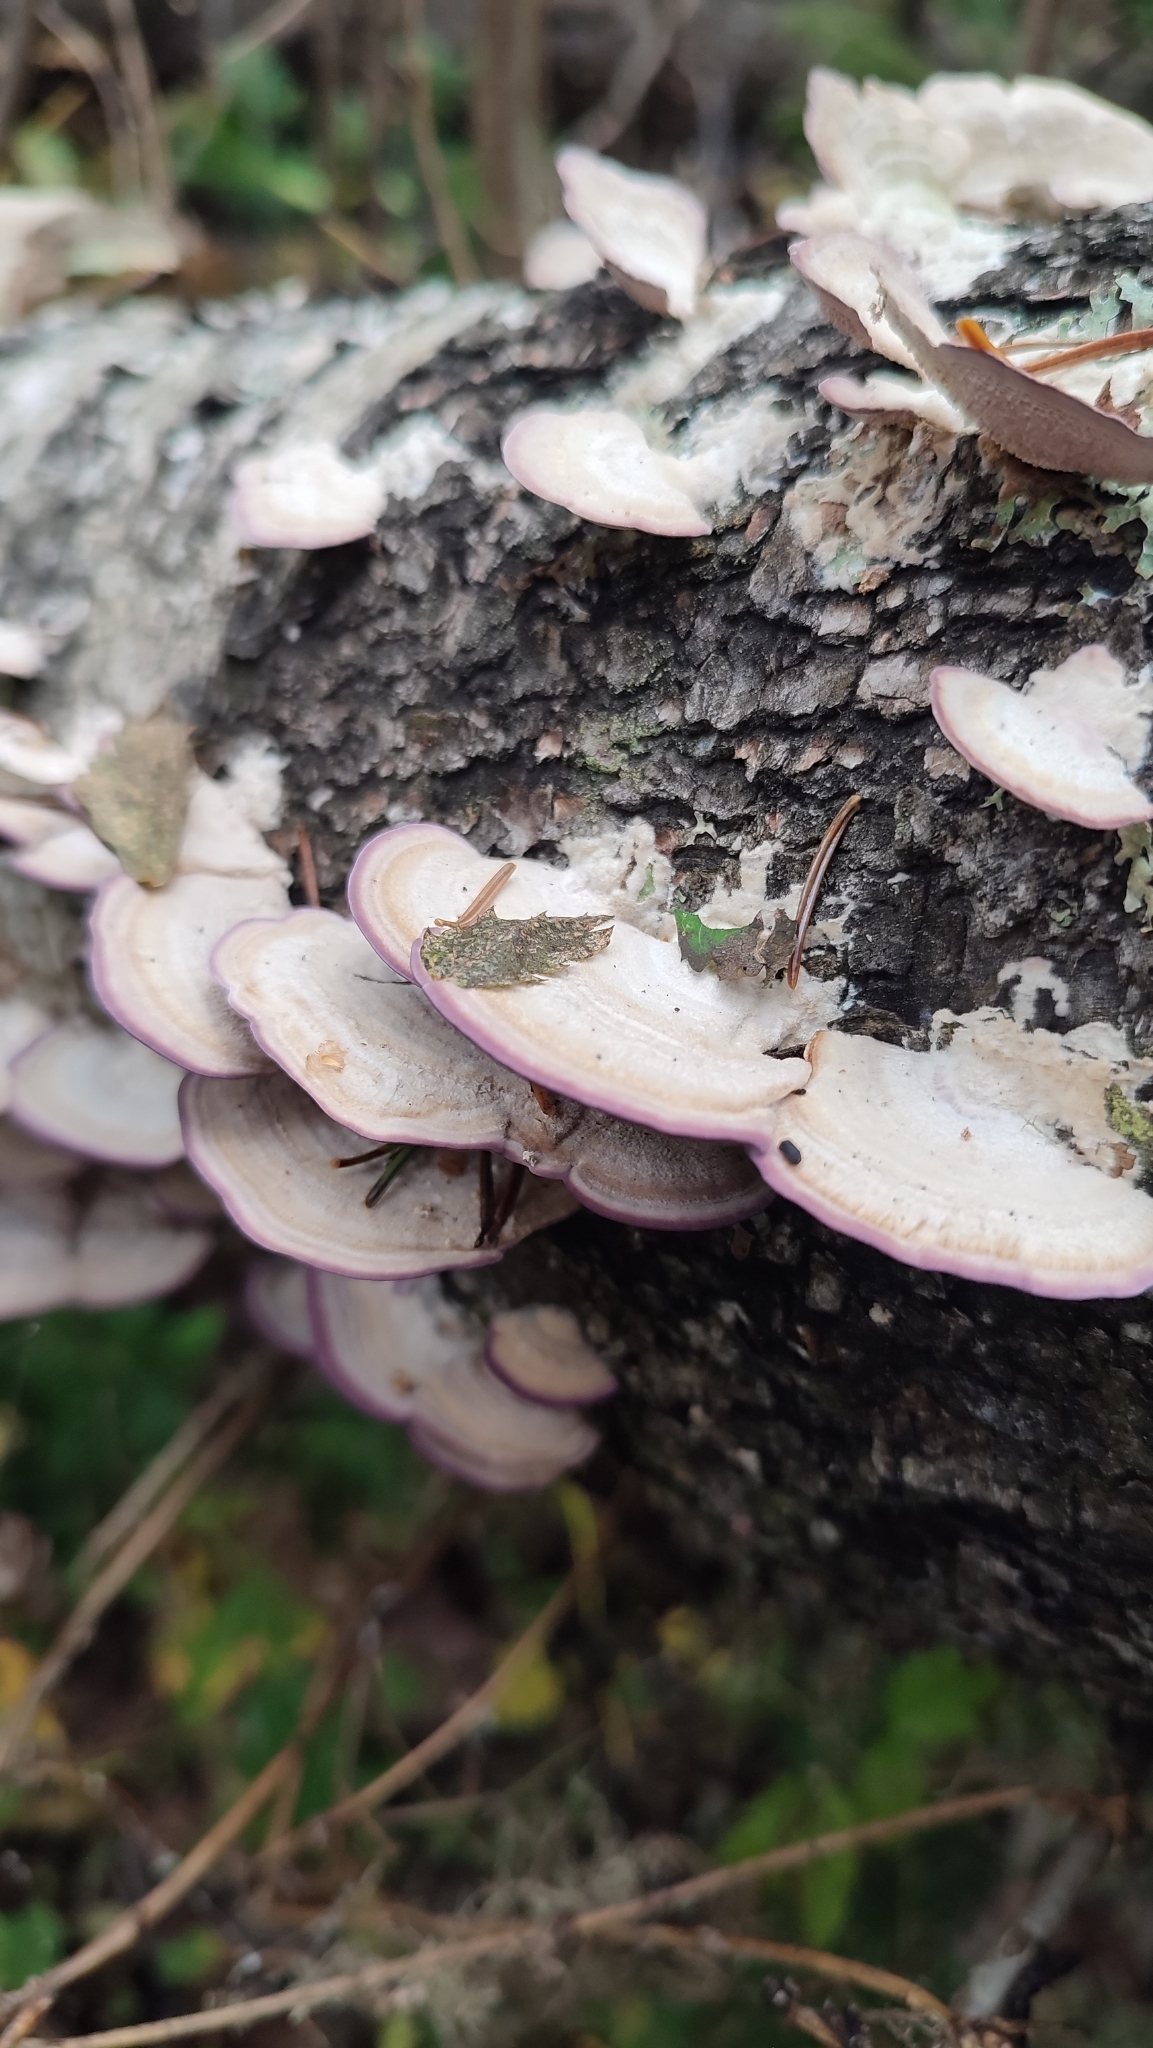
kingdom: Fungi
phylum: Basidiomycota
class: Agaricomycetes
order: Hymenochaetales
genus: Trichaptum
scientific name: Trichaptum biforme
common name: Violet-toothed polypore
